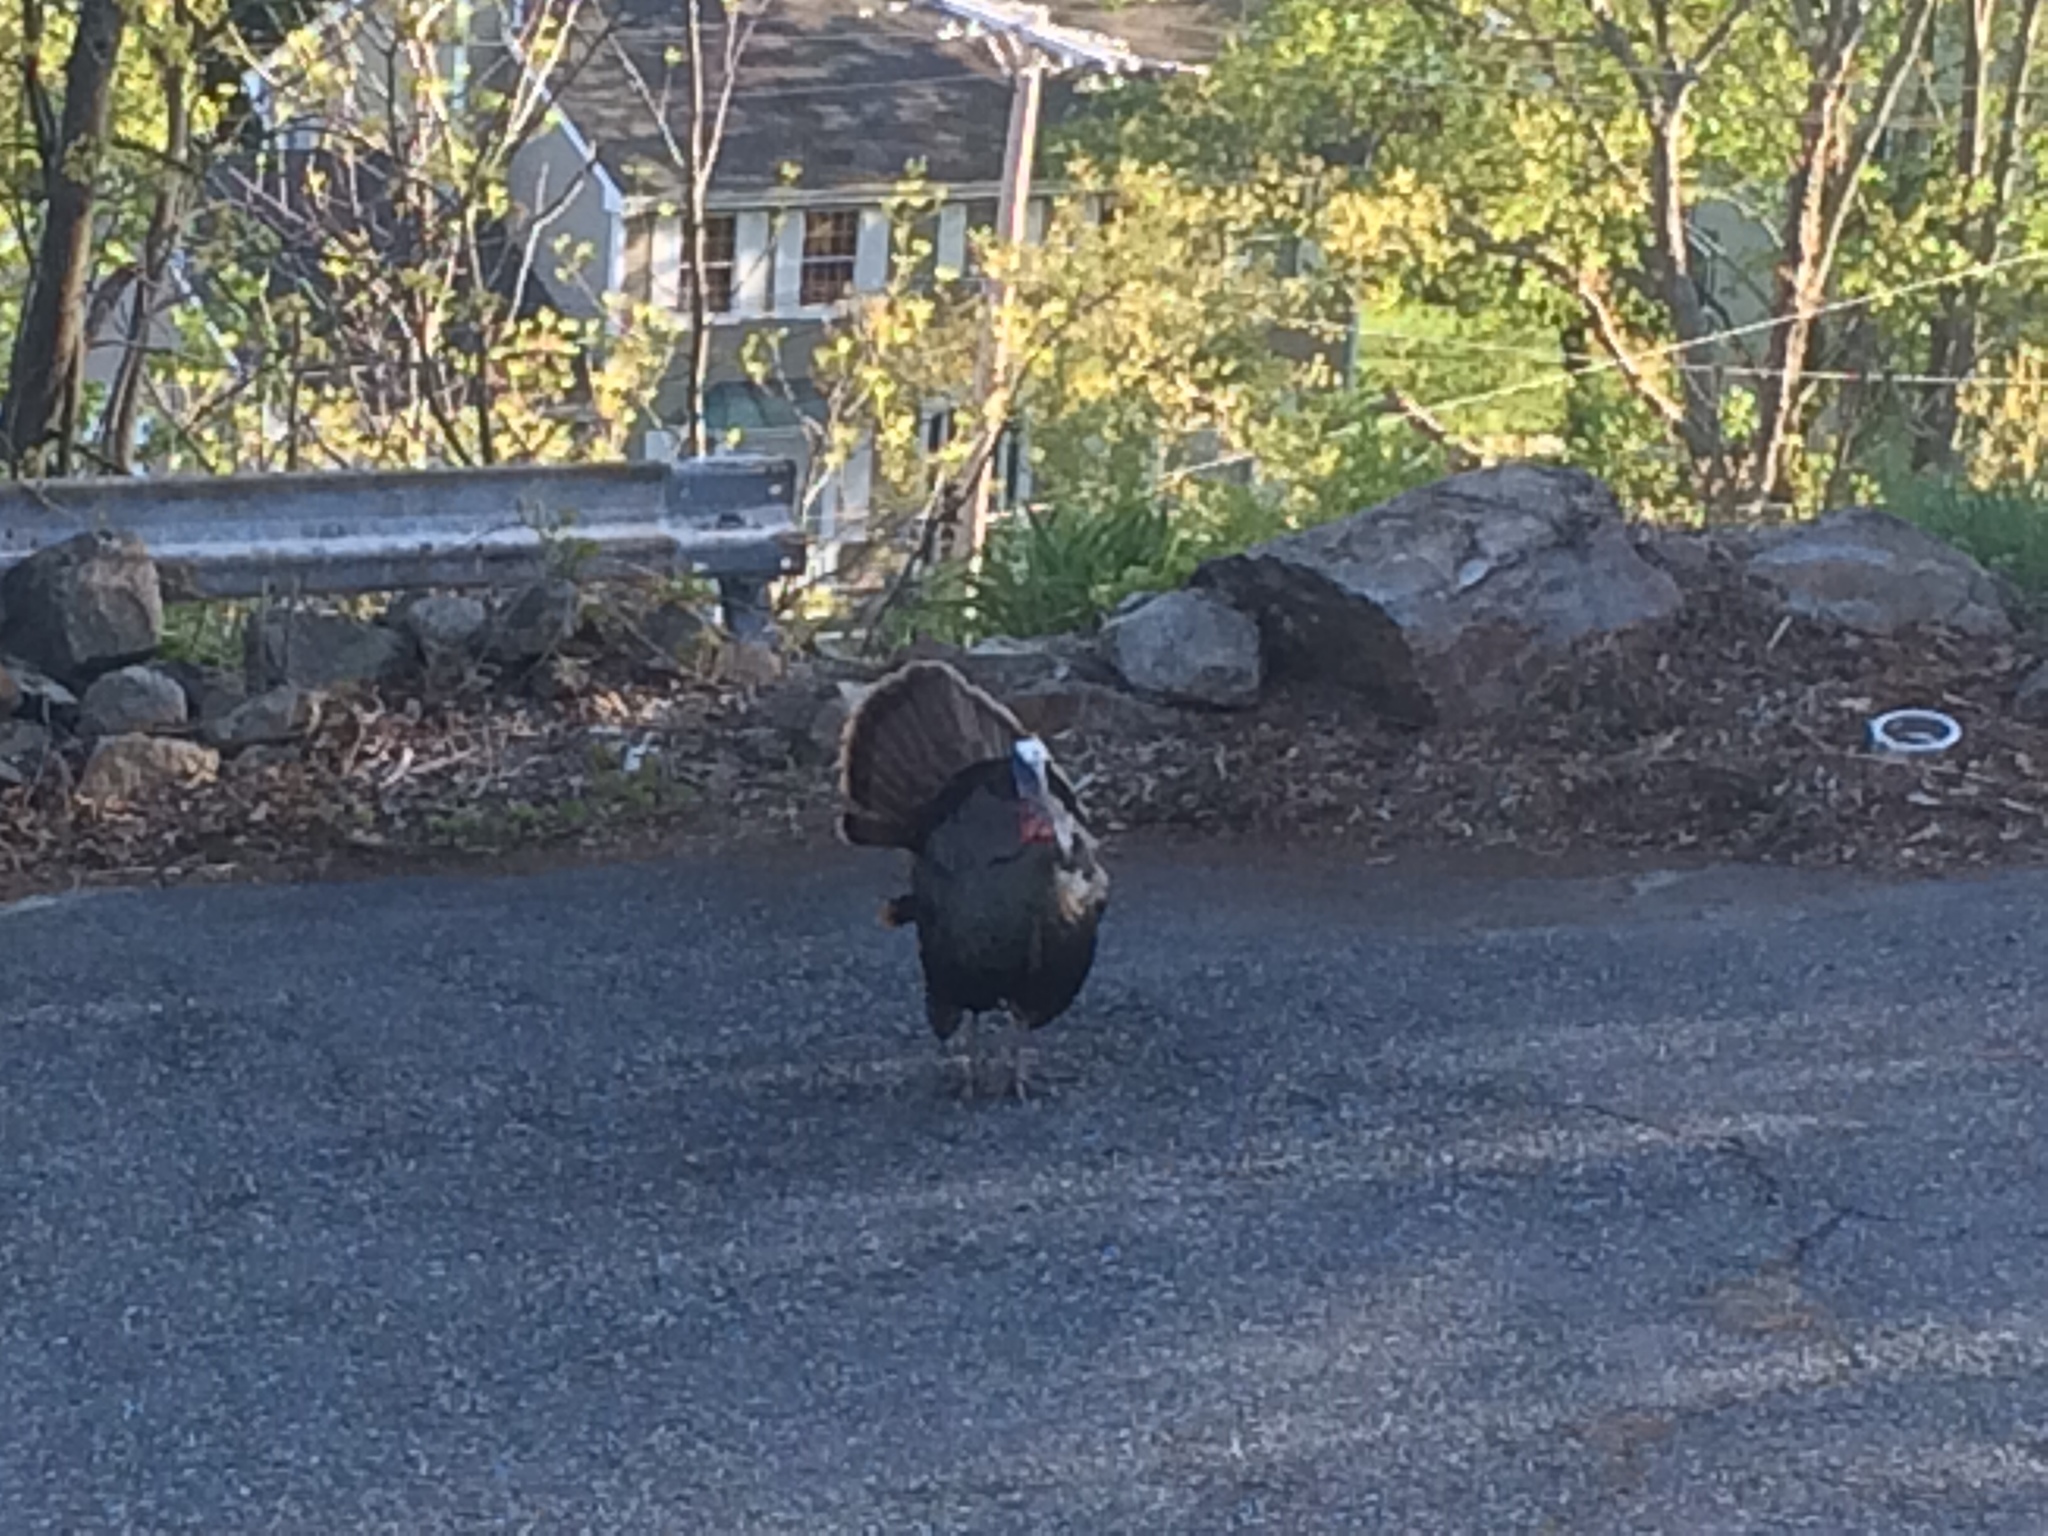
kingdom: Animalia
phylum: Chordata
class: Aves
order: Galliformes
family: Phasianidae
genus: Meleagris
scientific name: Meleagris gallopavo
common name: Wild turkey
